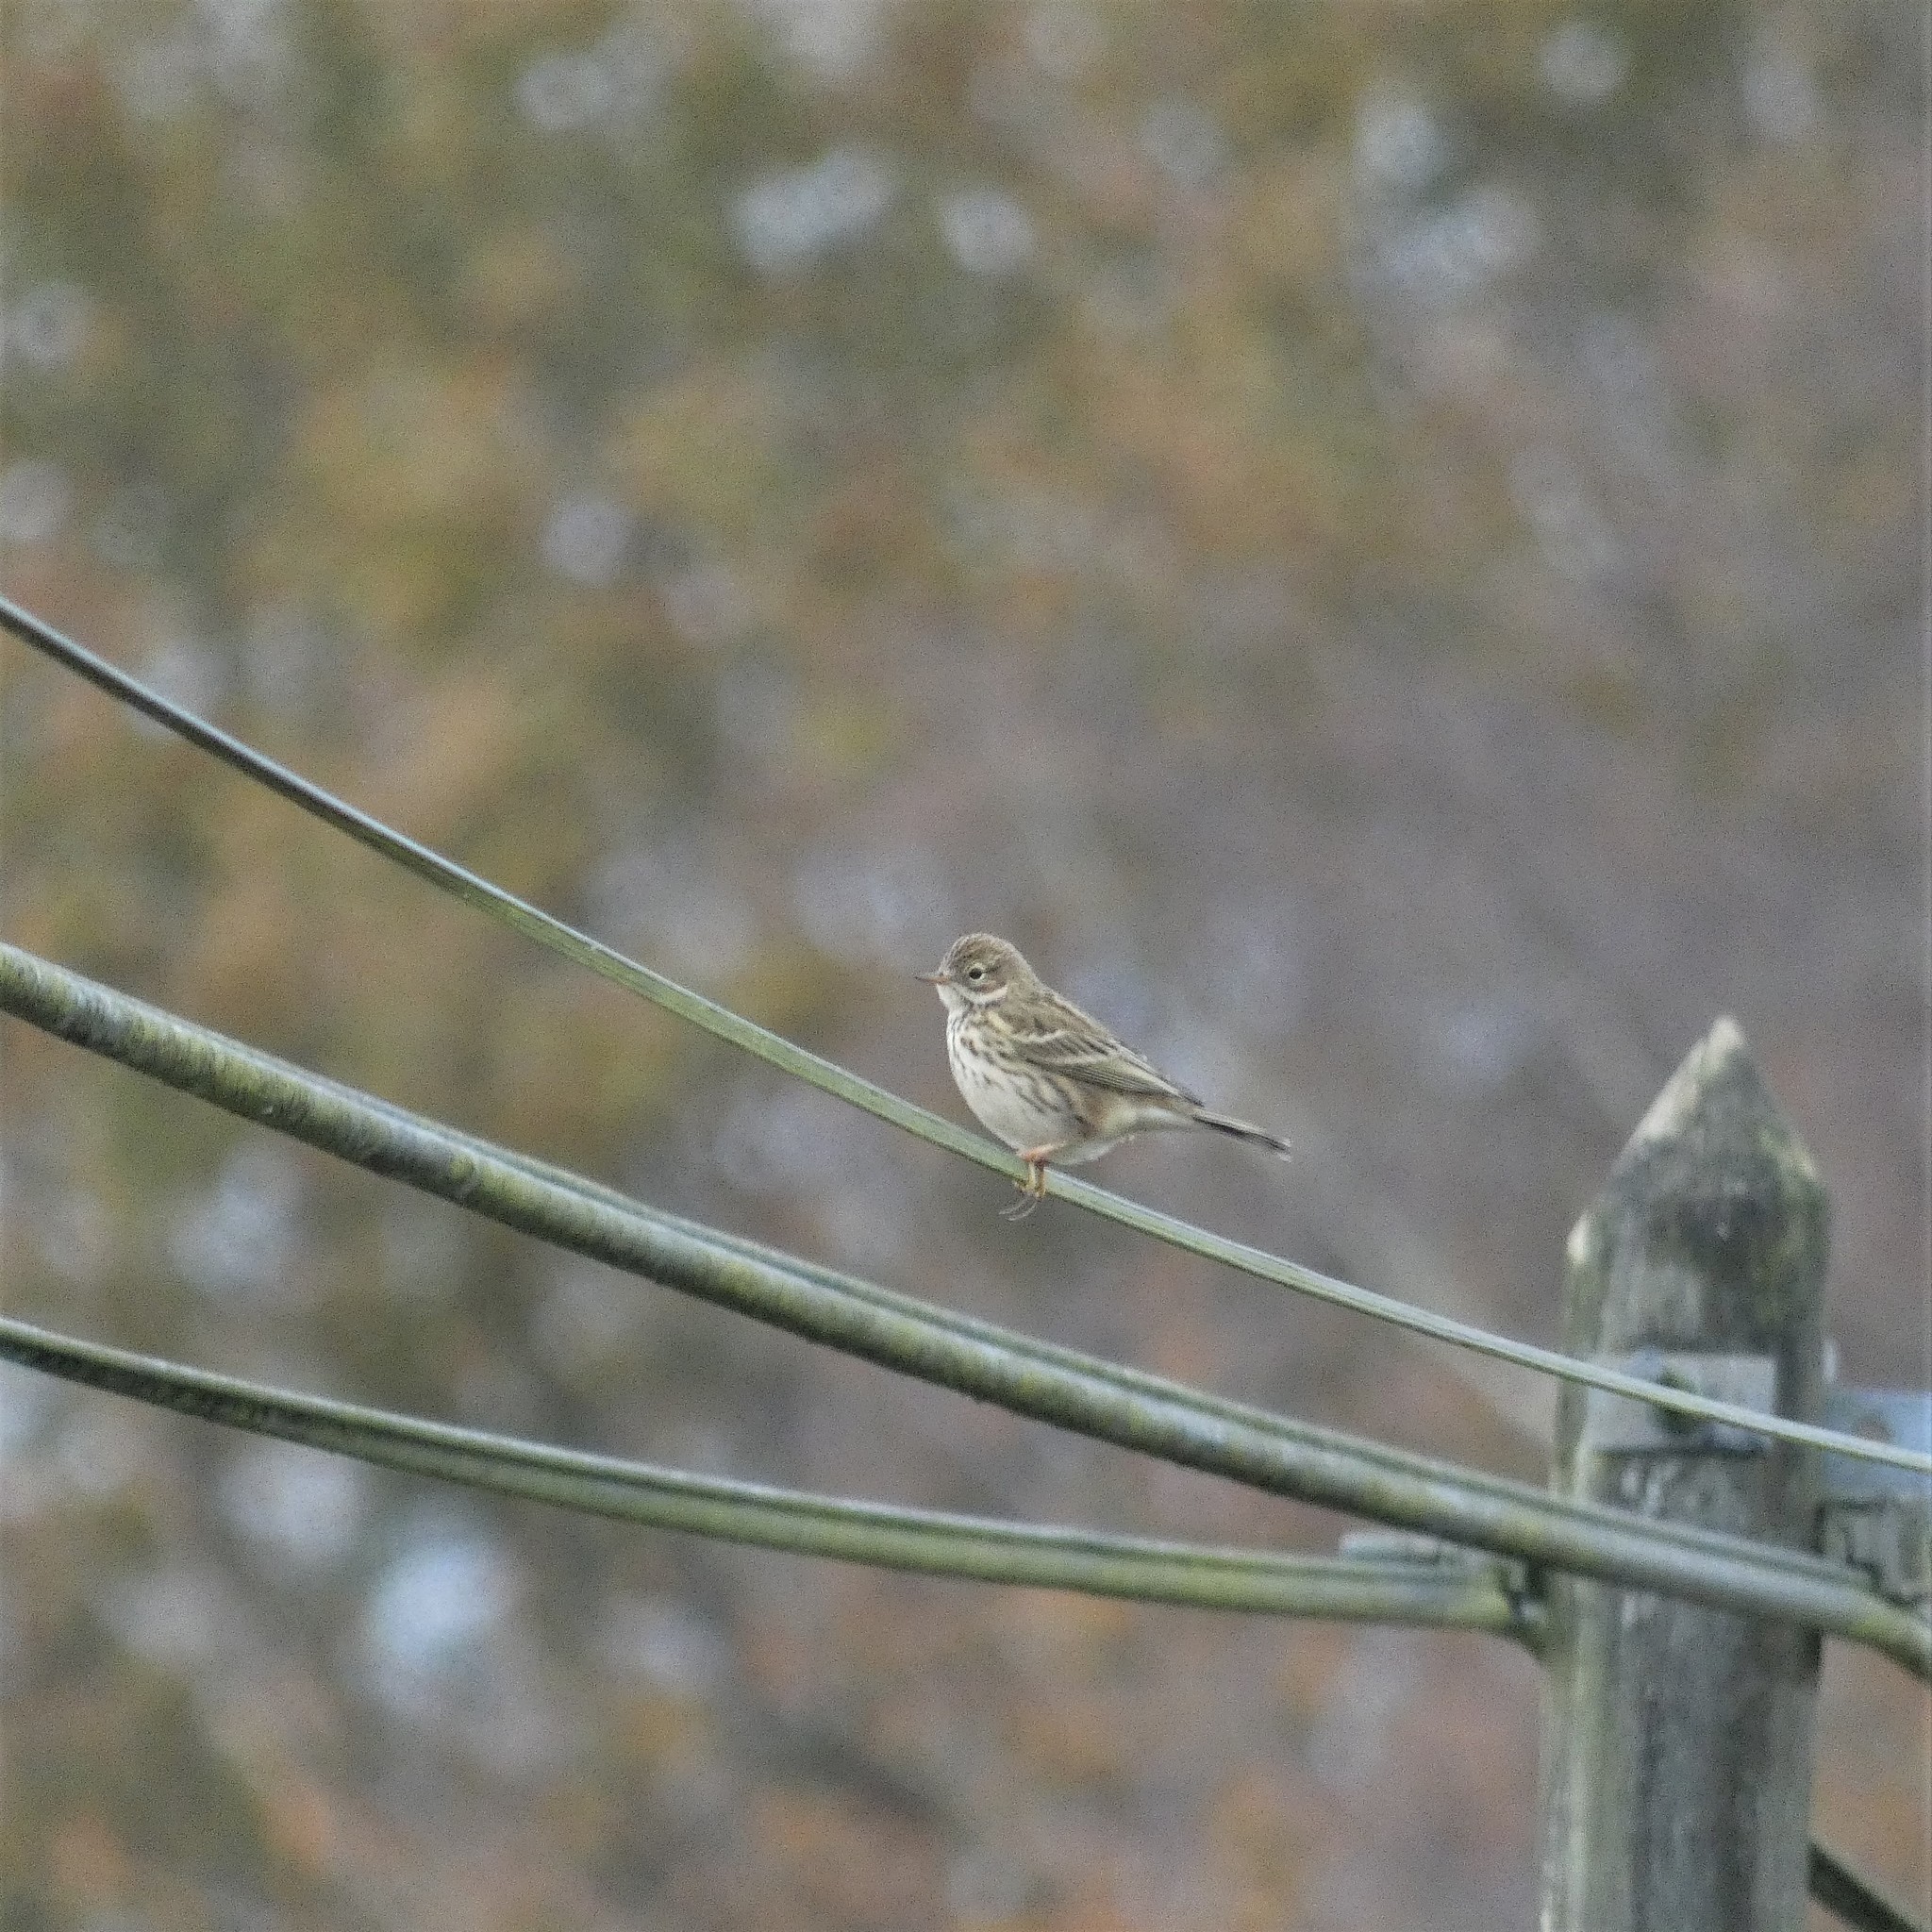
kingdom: Animalia
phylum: Chordata
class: Aves
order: Passeriformes
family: Motacillidae
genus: Anthus
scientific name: Anthus pratensis
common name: Meadow pipit
